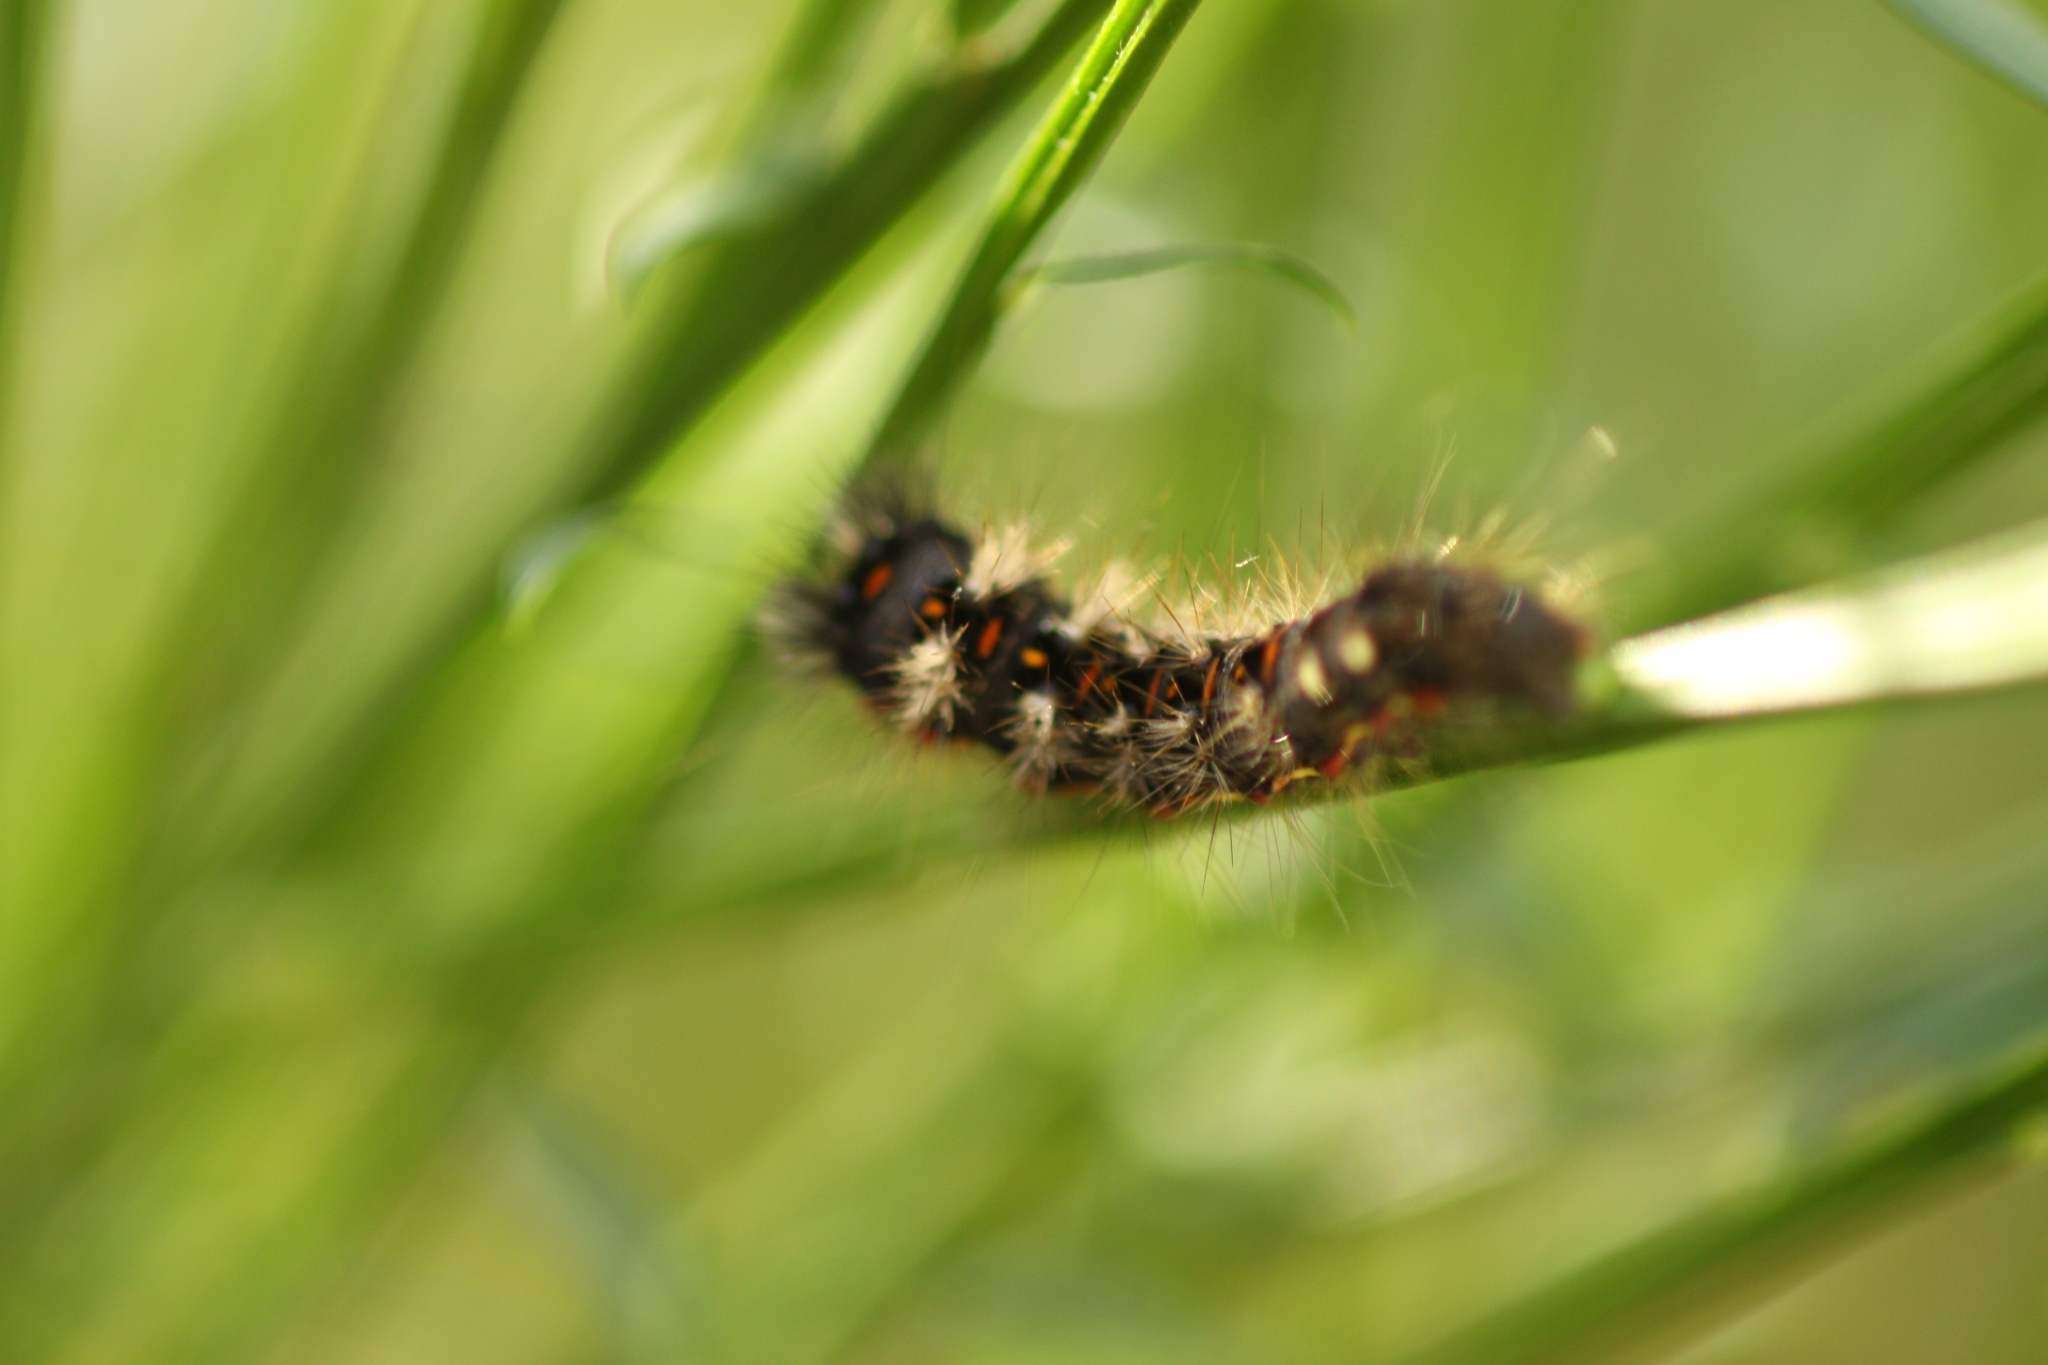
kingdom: Animalia
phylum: Arthropoda
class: Insecta
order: Lepidoptera
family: Noctuidae
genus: Acronicta
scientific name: Acronicta rumicis
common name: Knot grass
